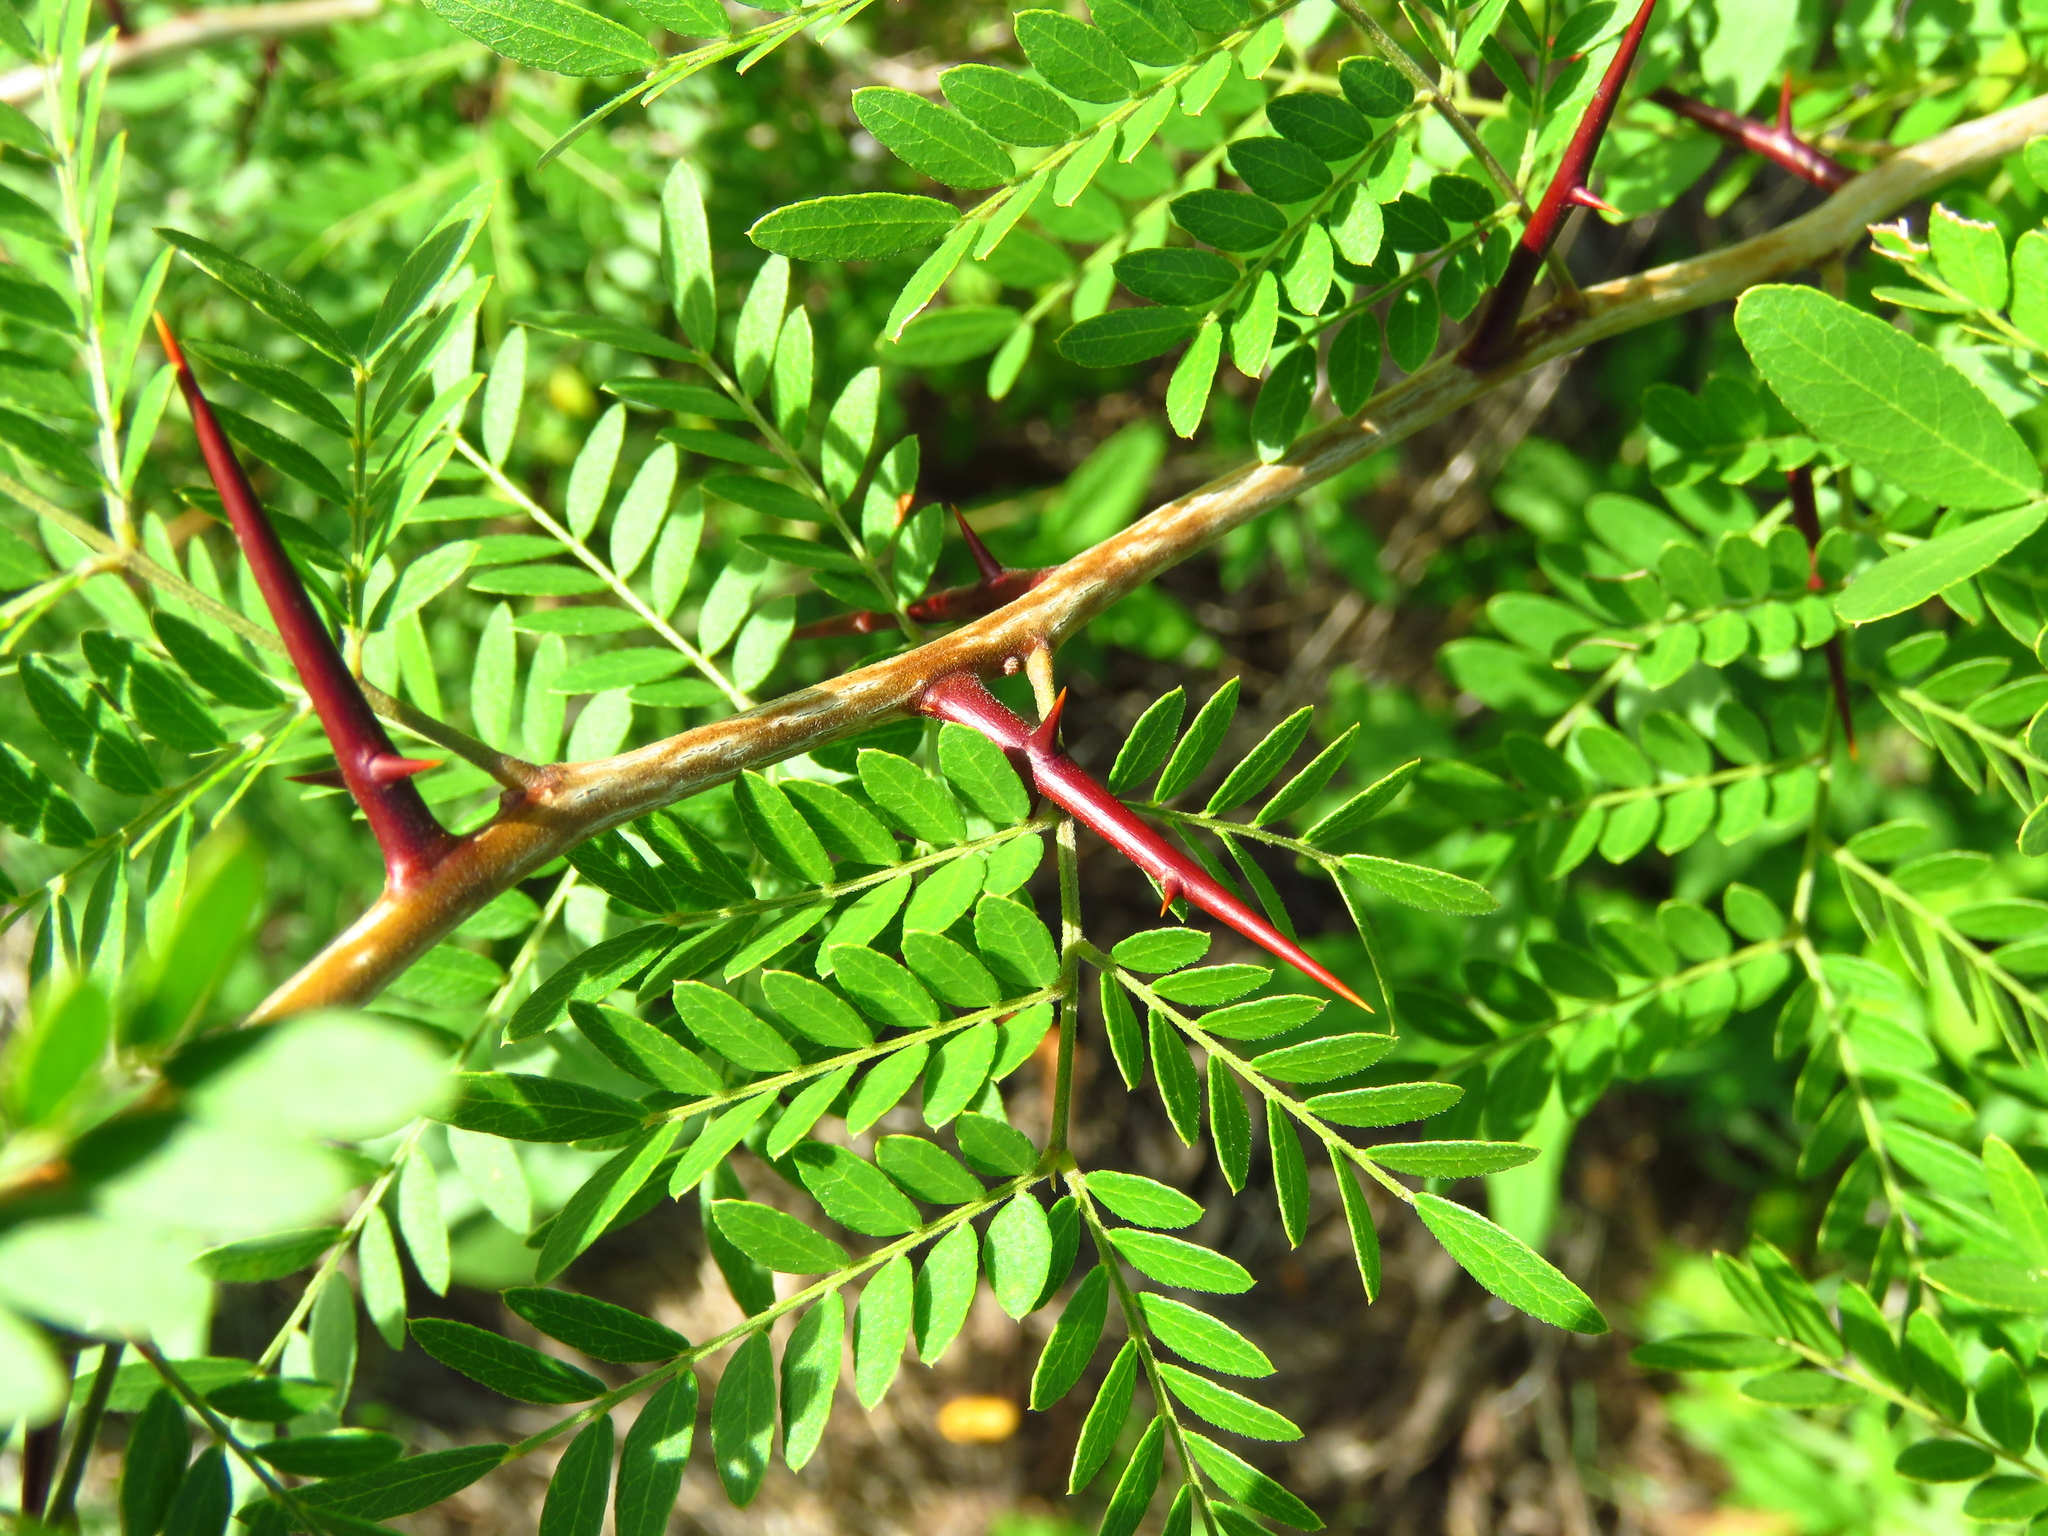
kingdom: Plantae
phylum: Tracheophyta
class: Magnoliopsida
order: Fabales
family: Fabaceae
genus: Gleditsia
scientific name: Gleditsia triacanthos
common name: Common honeylocust
